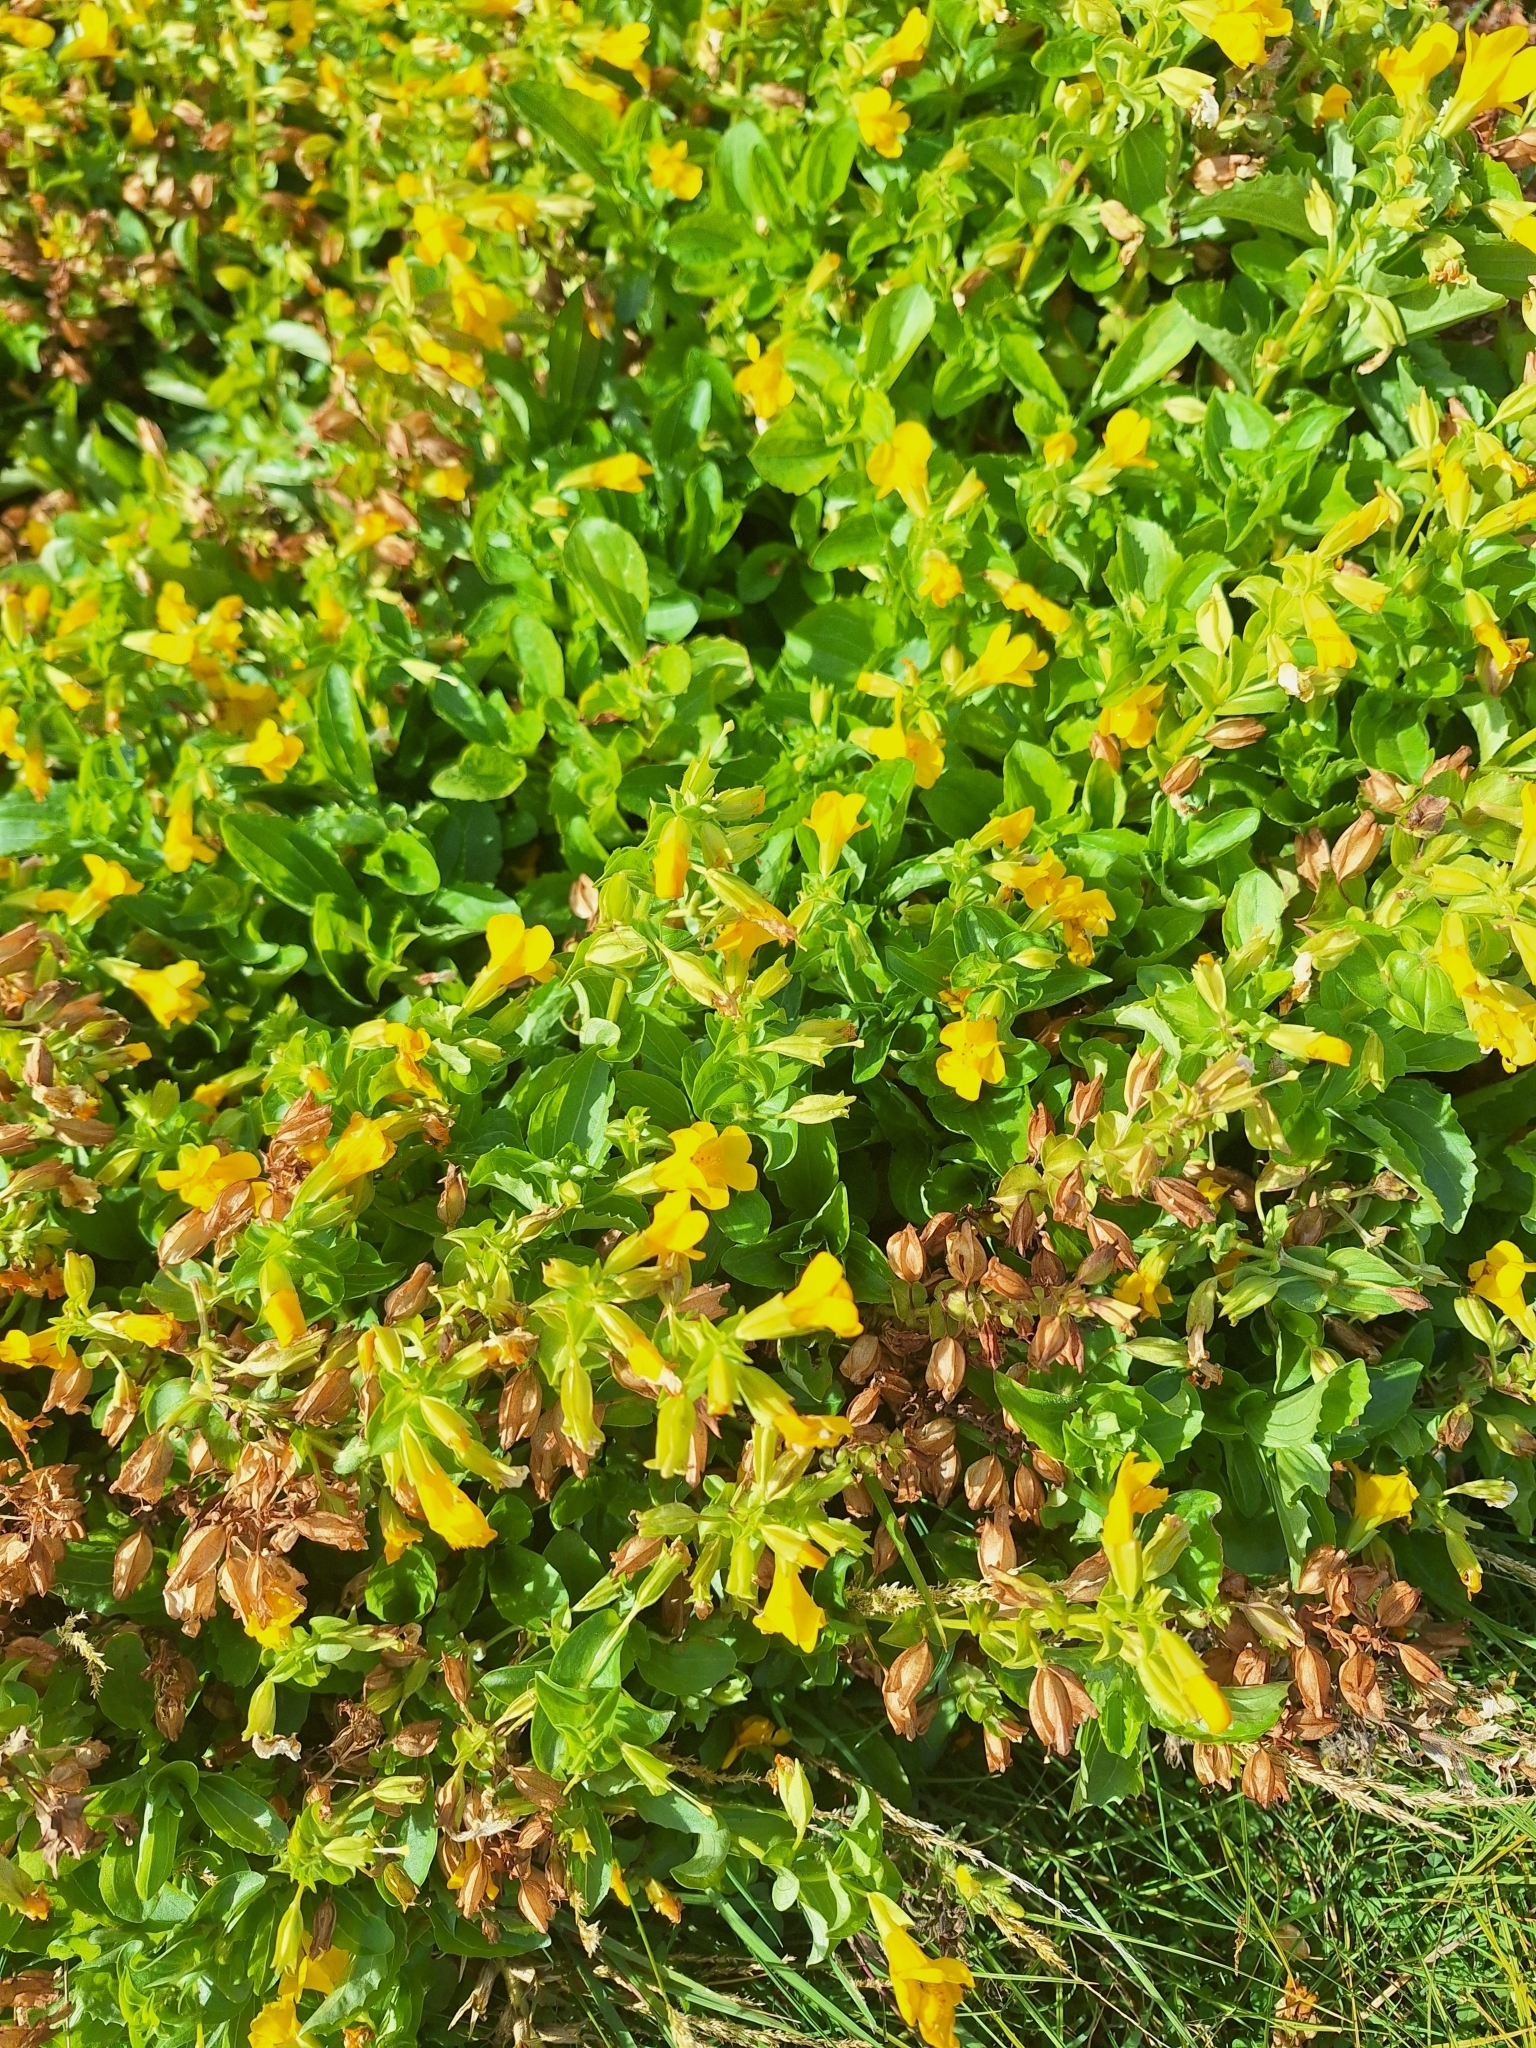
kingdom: Plantae
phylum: Tracheophyta
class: Magnoliopsida
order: Lamiales
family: Phrymaceae
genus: Erythranthe
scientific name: Erythranthe guttata
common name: Monkeyflower
